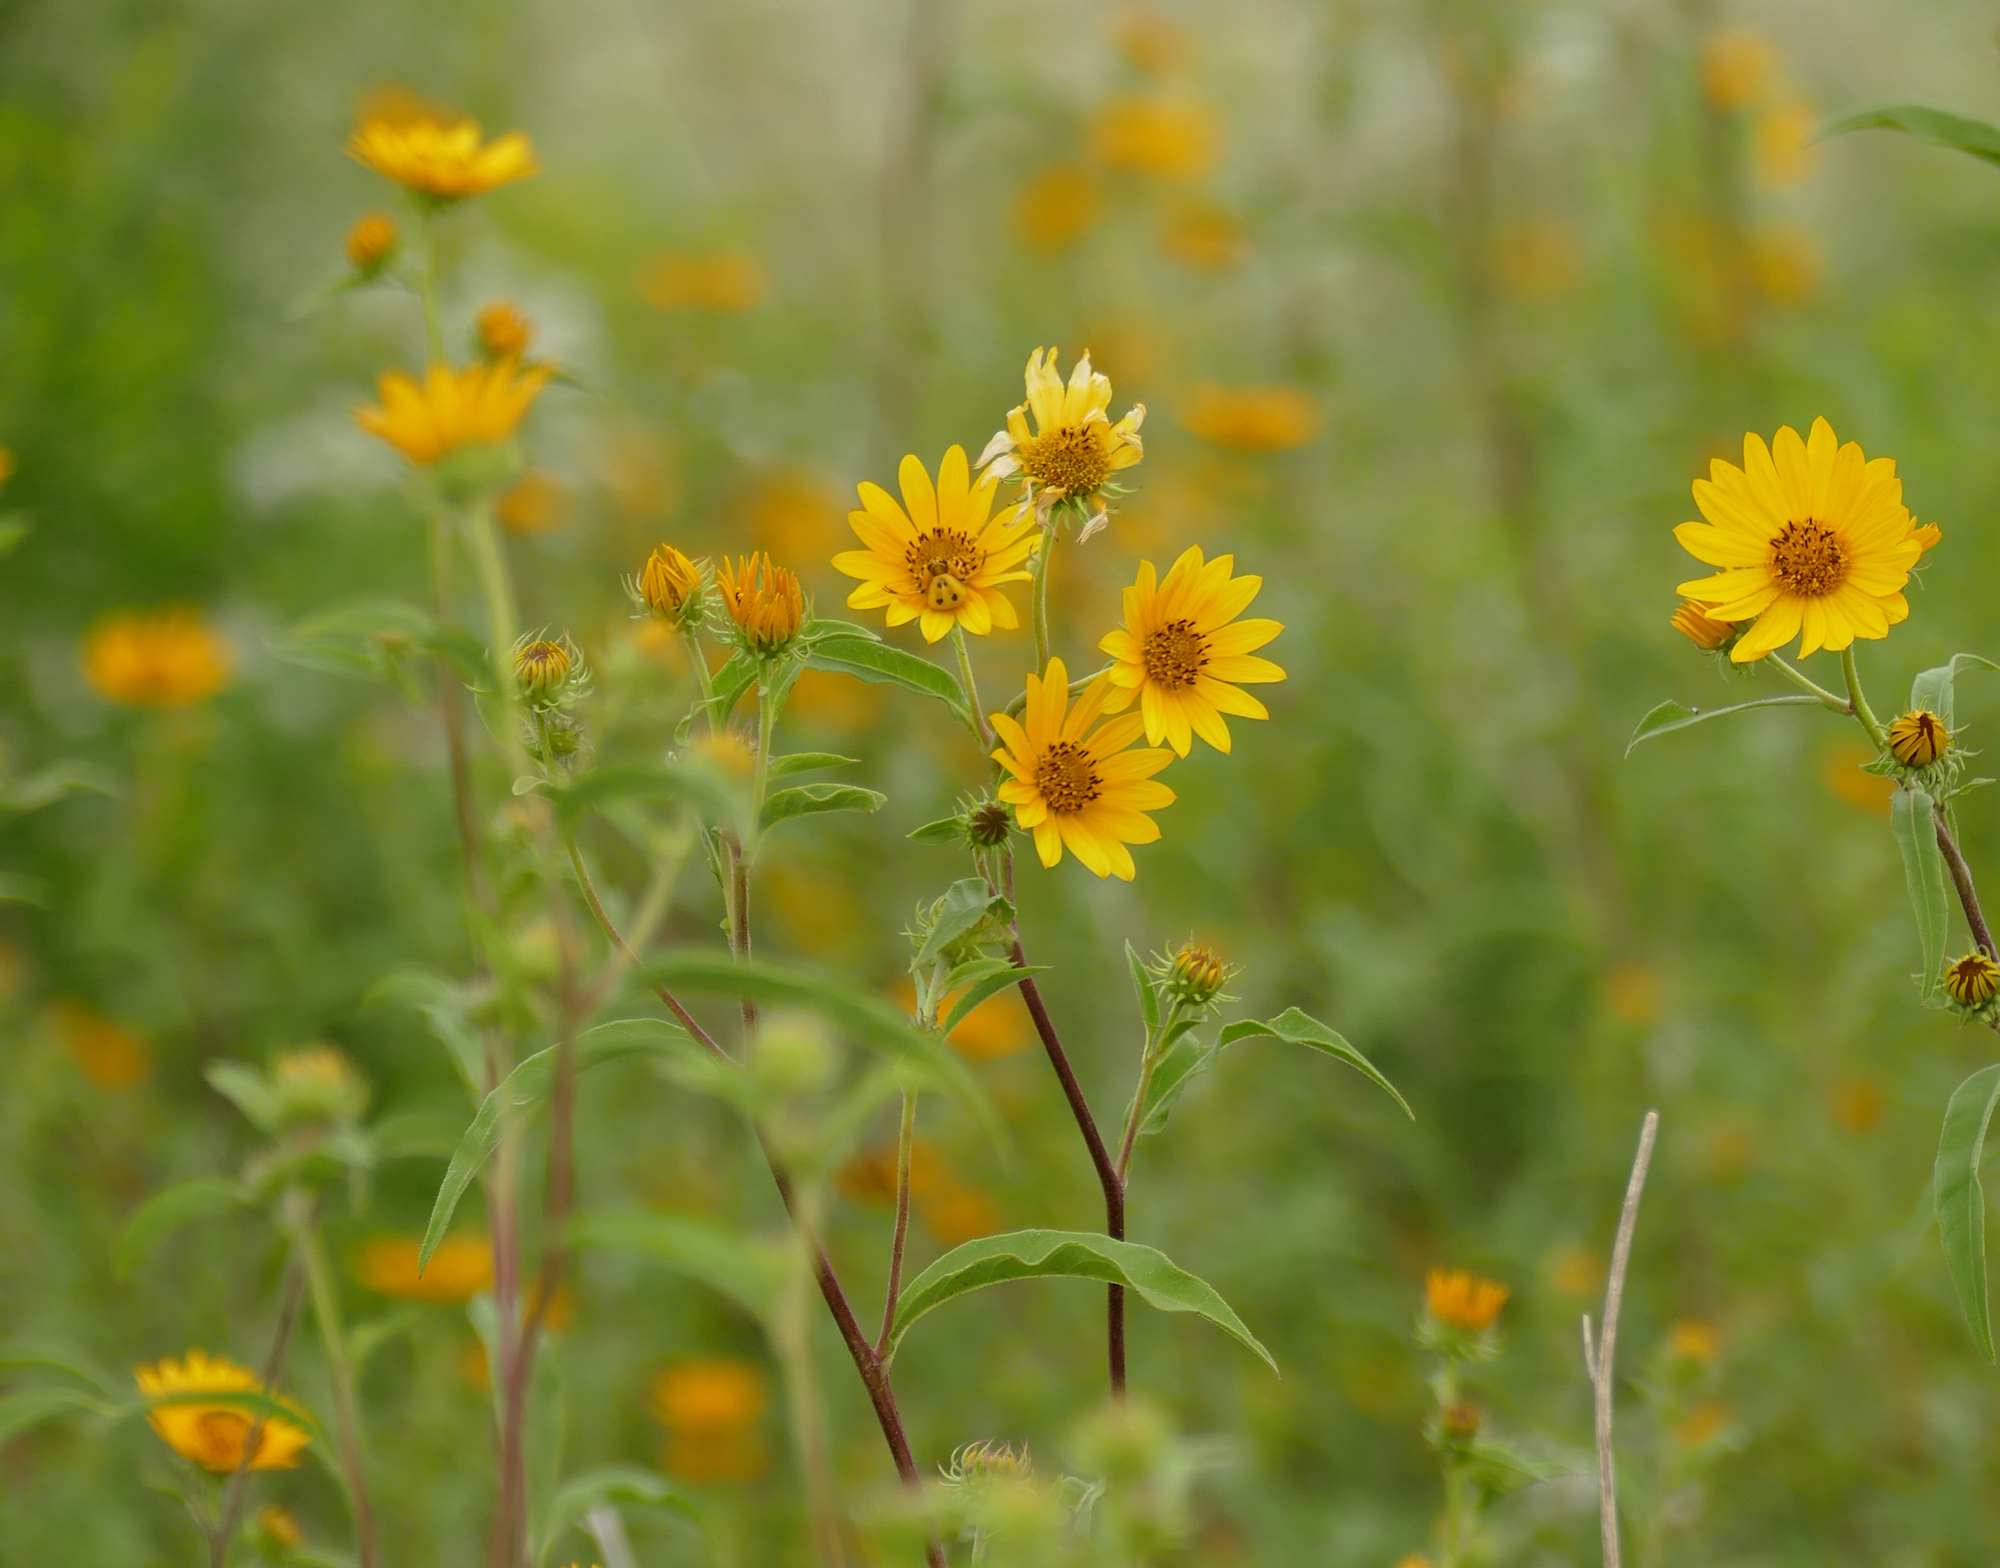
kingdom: Plantae
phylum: Tracheophyta
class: Magnoliopsida
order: Asterales
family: Asteraceae
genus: Helianthus
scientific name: Helianthus maximiliani
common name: Maximilian's sunflower
